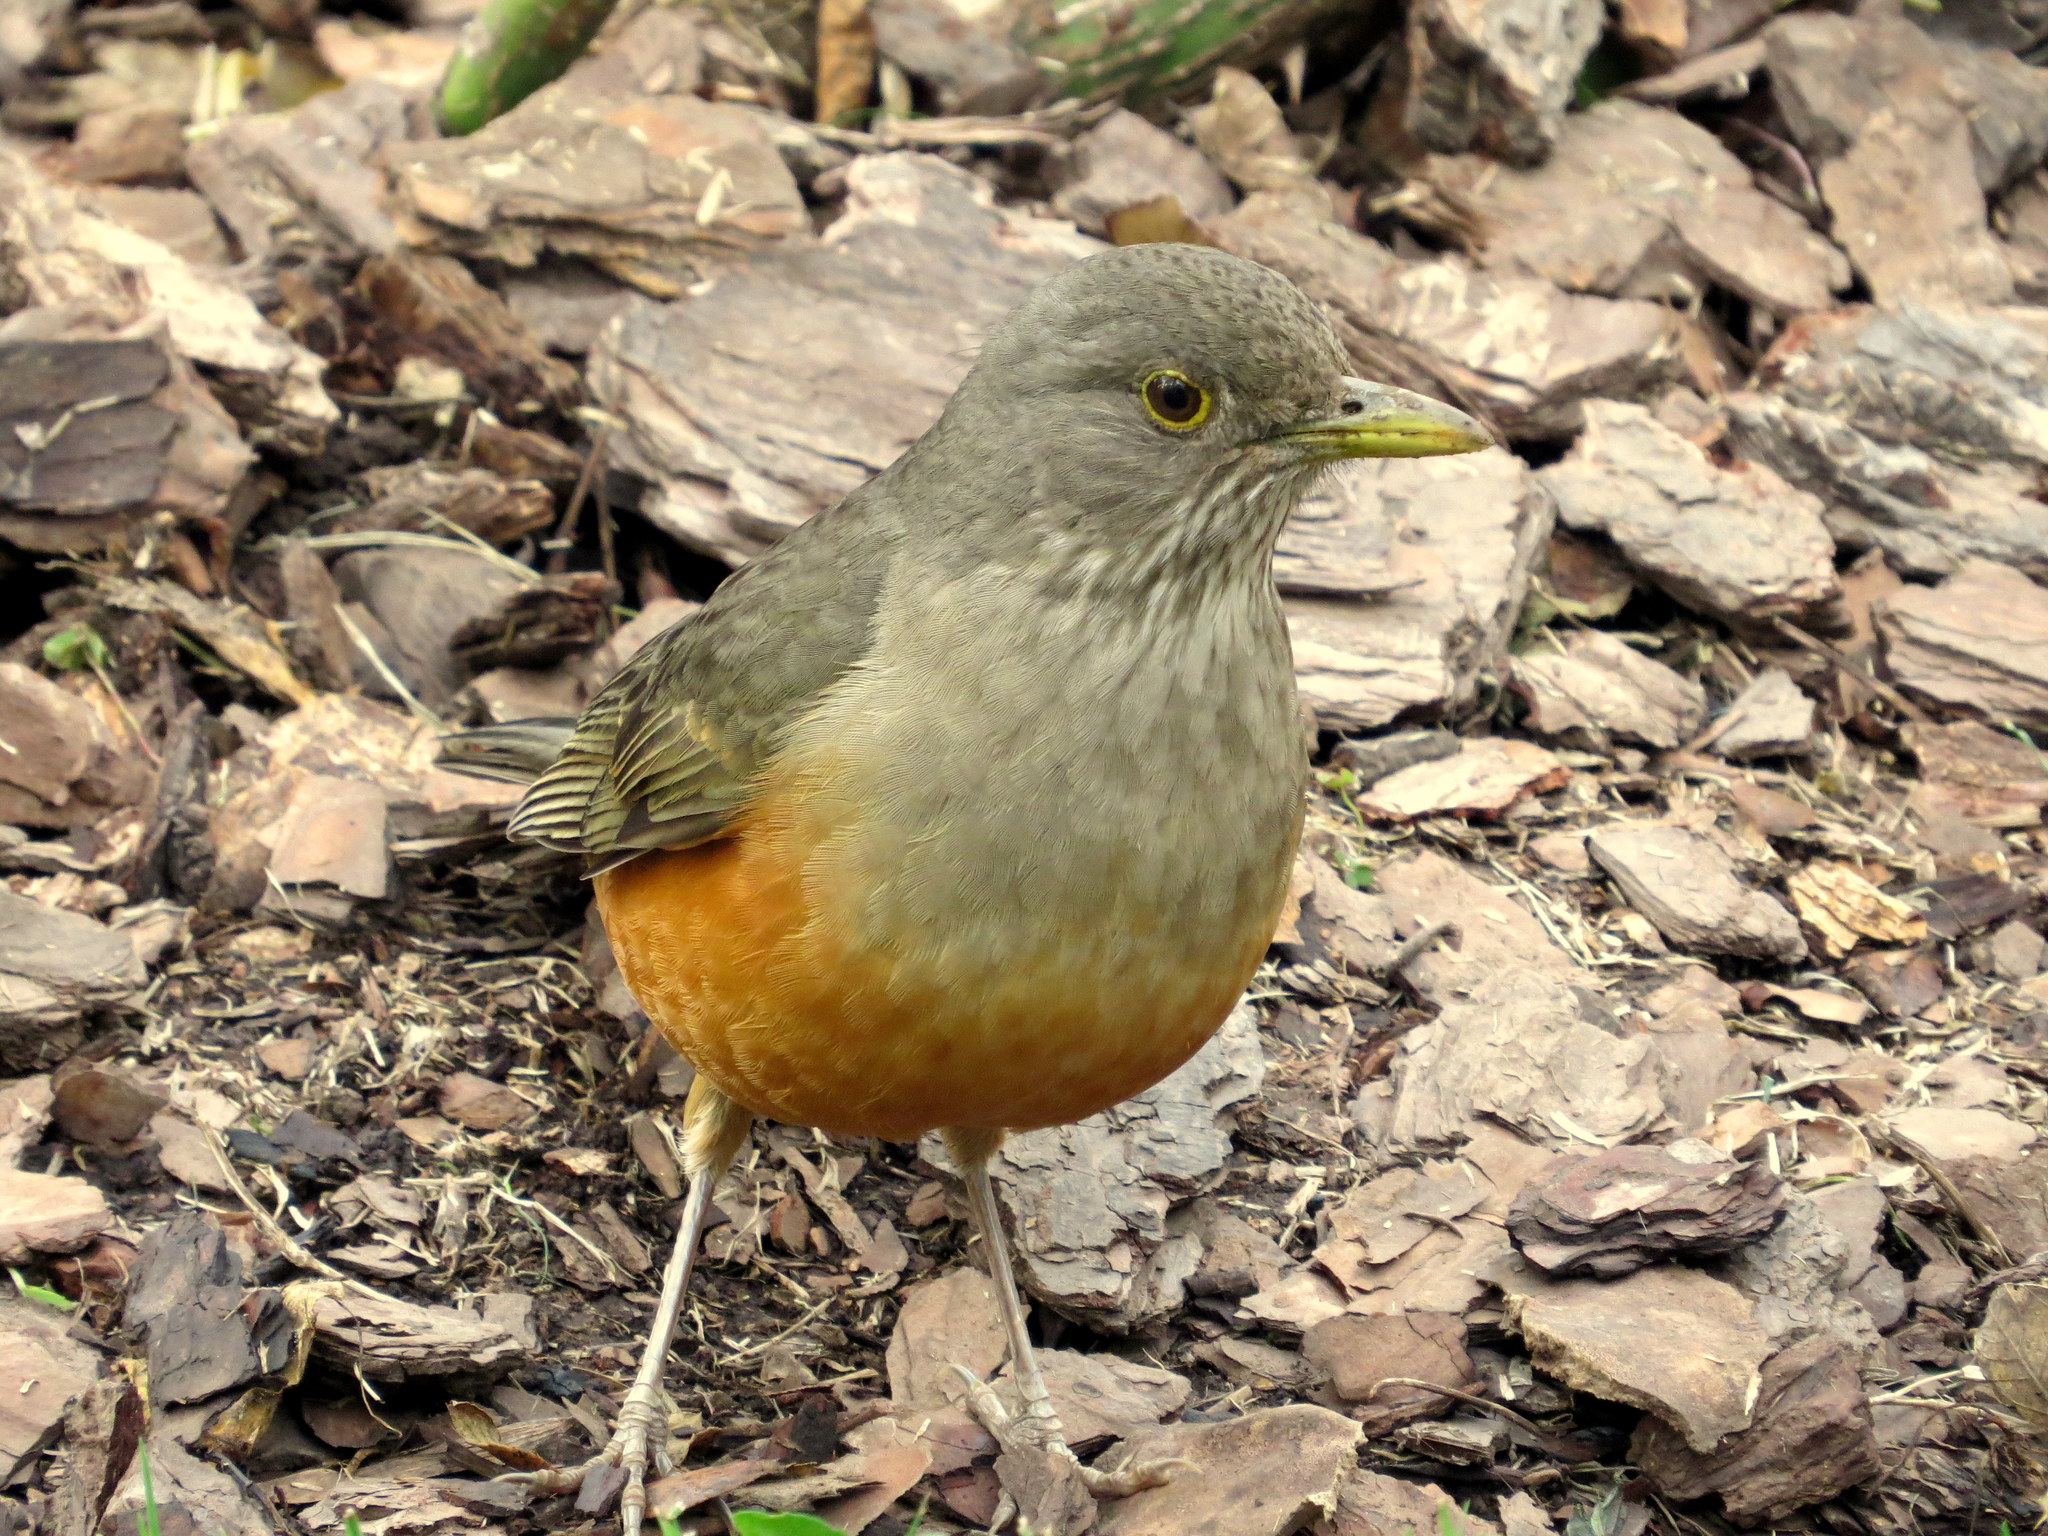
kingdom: Animalia
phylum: Chordata
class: Aves
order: Passeriformes
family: Turdidae
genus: Turdus
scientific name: Turdus rufiventris
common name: Rufous-bellied thrush
